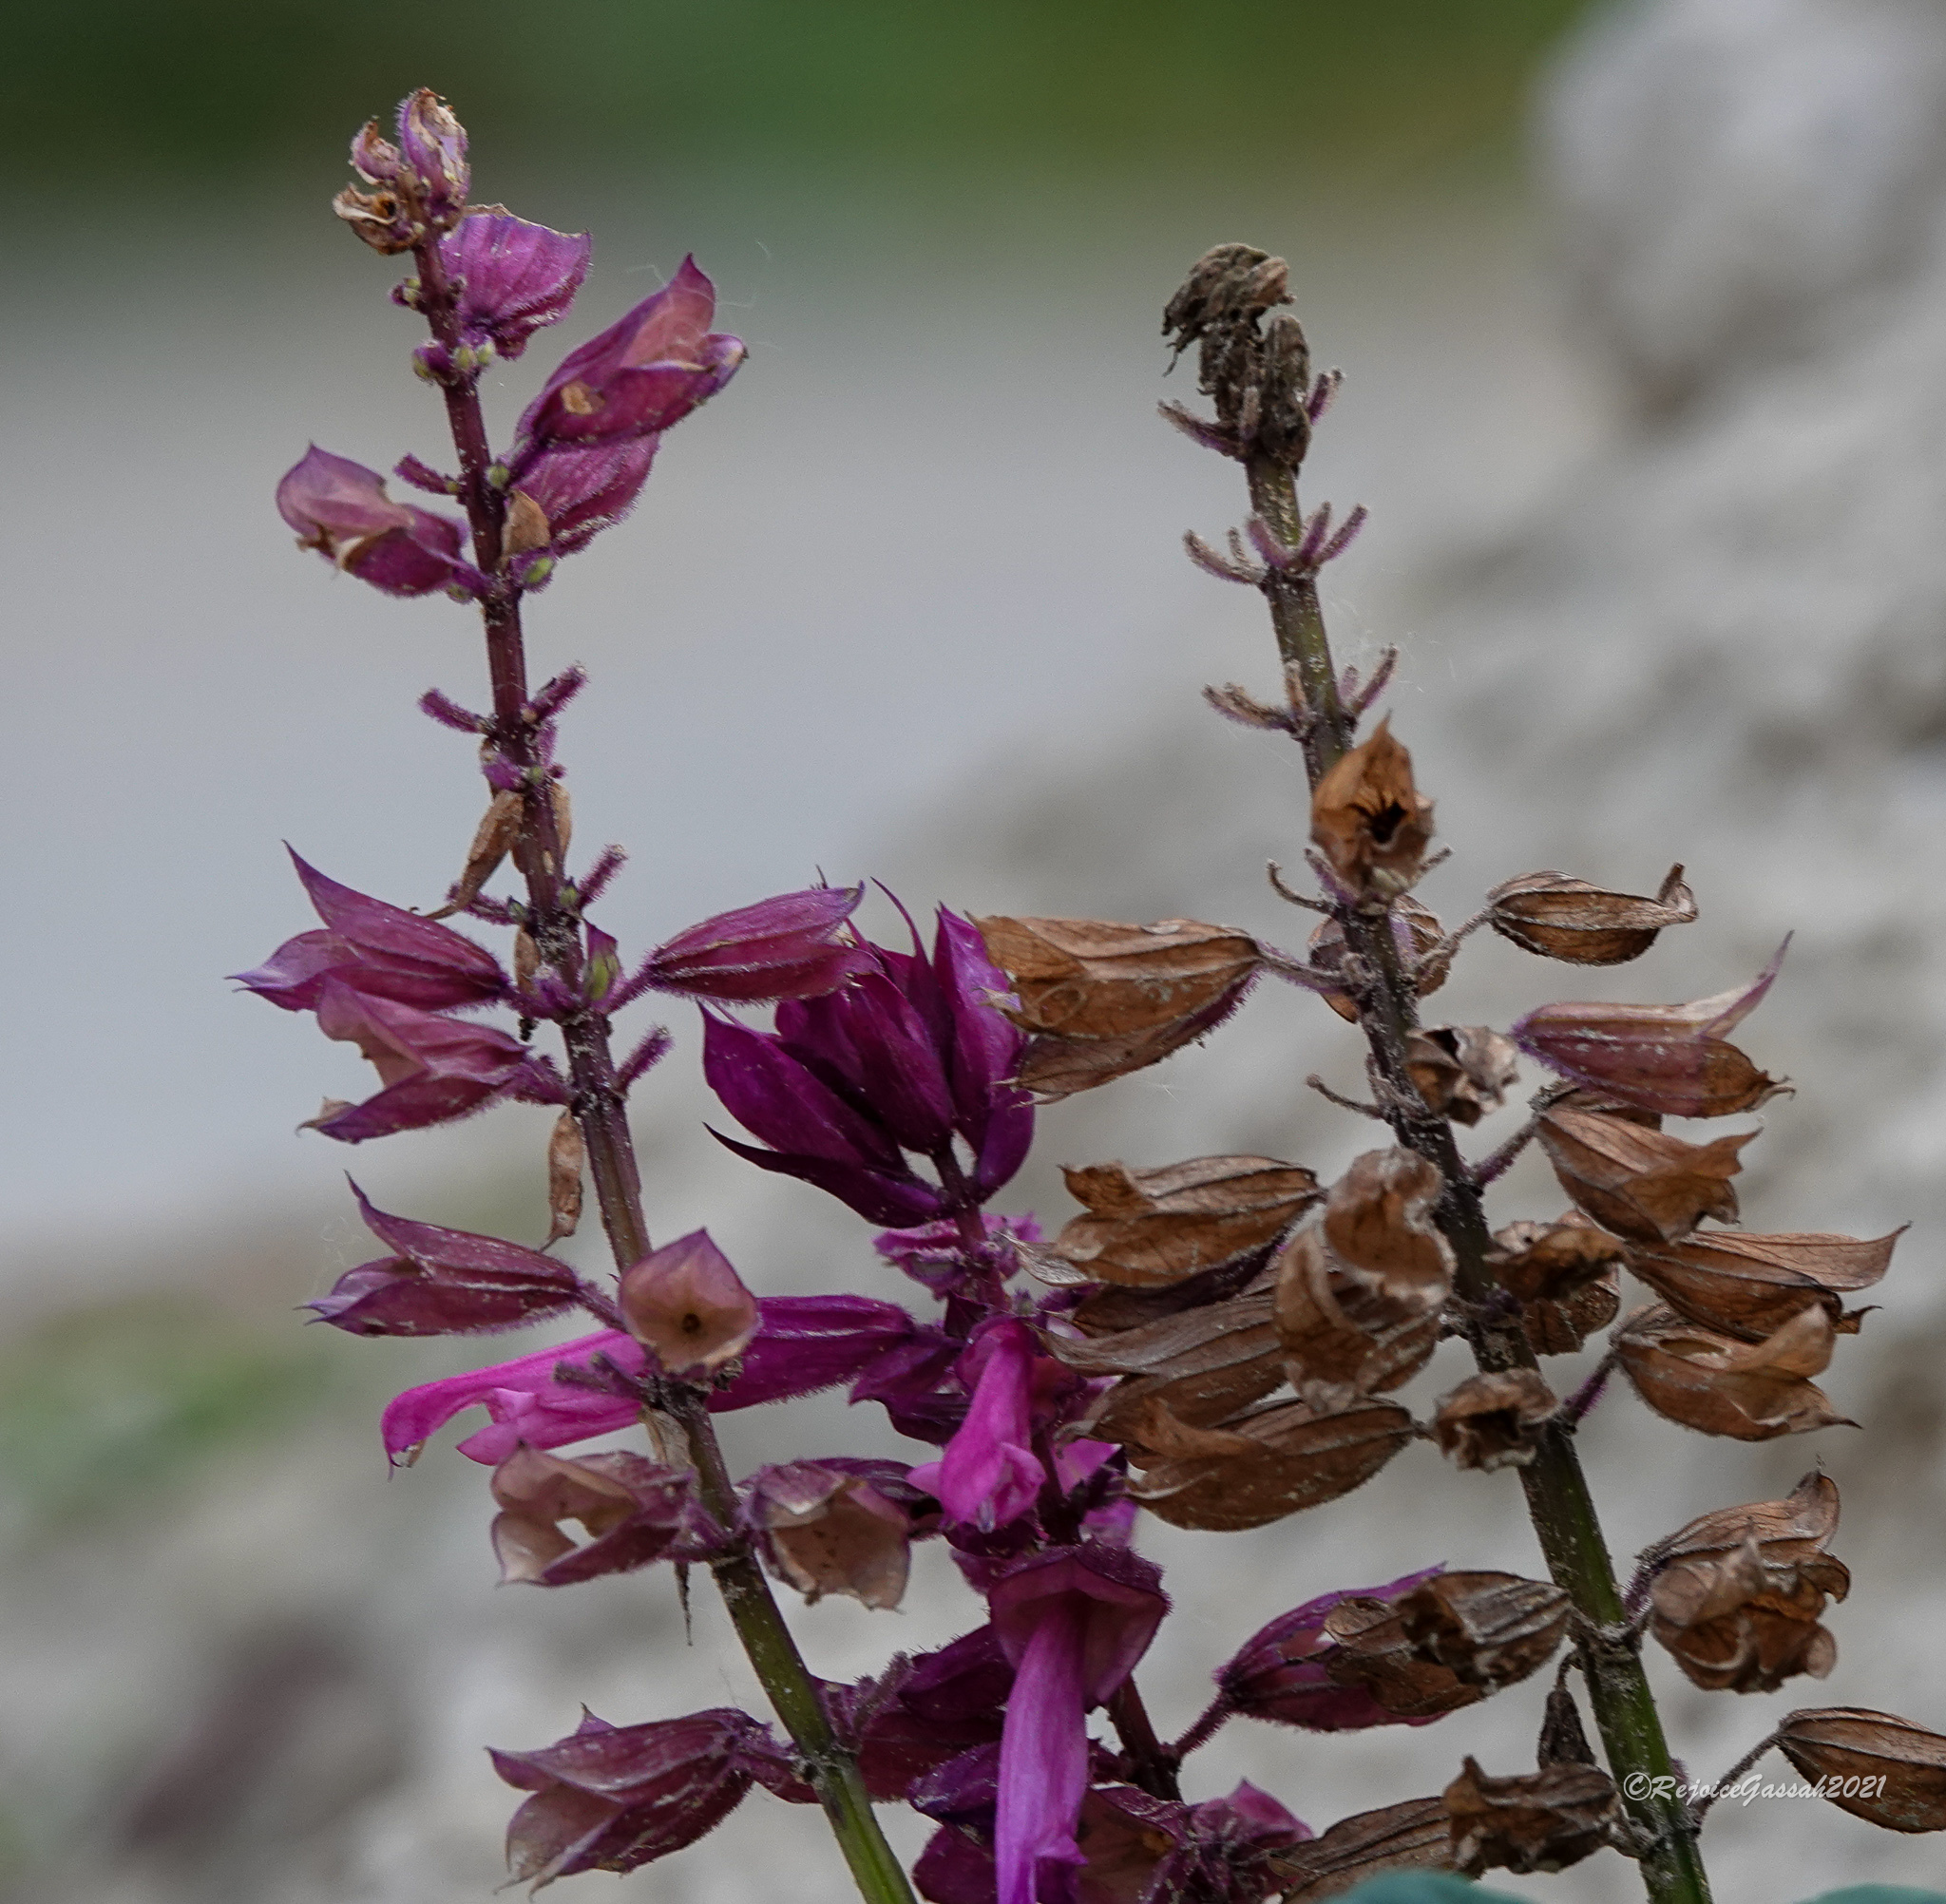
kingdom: Plantae
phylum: Tracheophyta
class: Magnoliopsida
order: Lamiales
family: Lamiaceae
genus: Salvia
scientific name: Salvia splendens
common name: Scarlet sage
